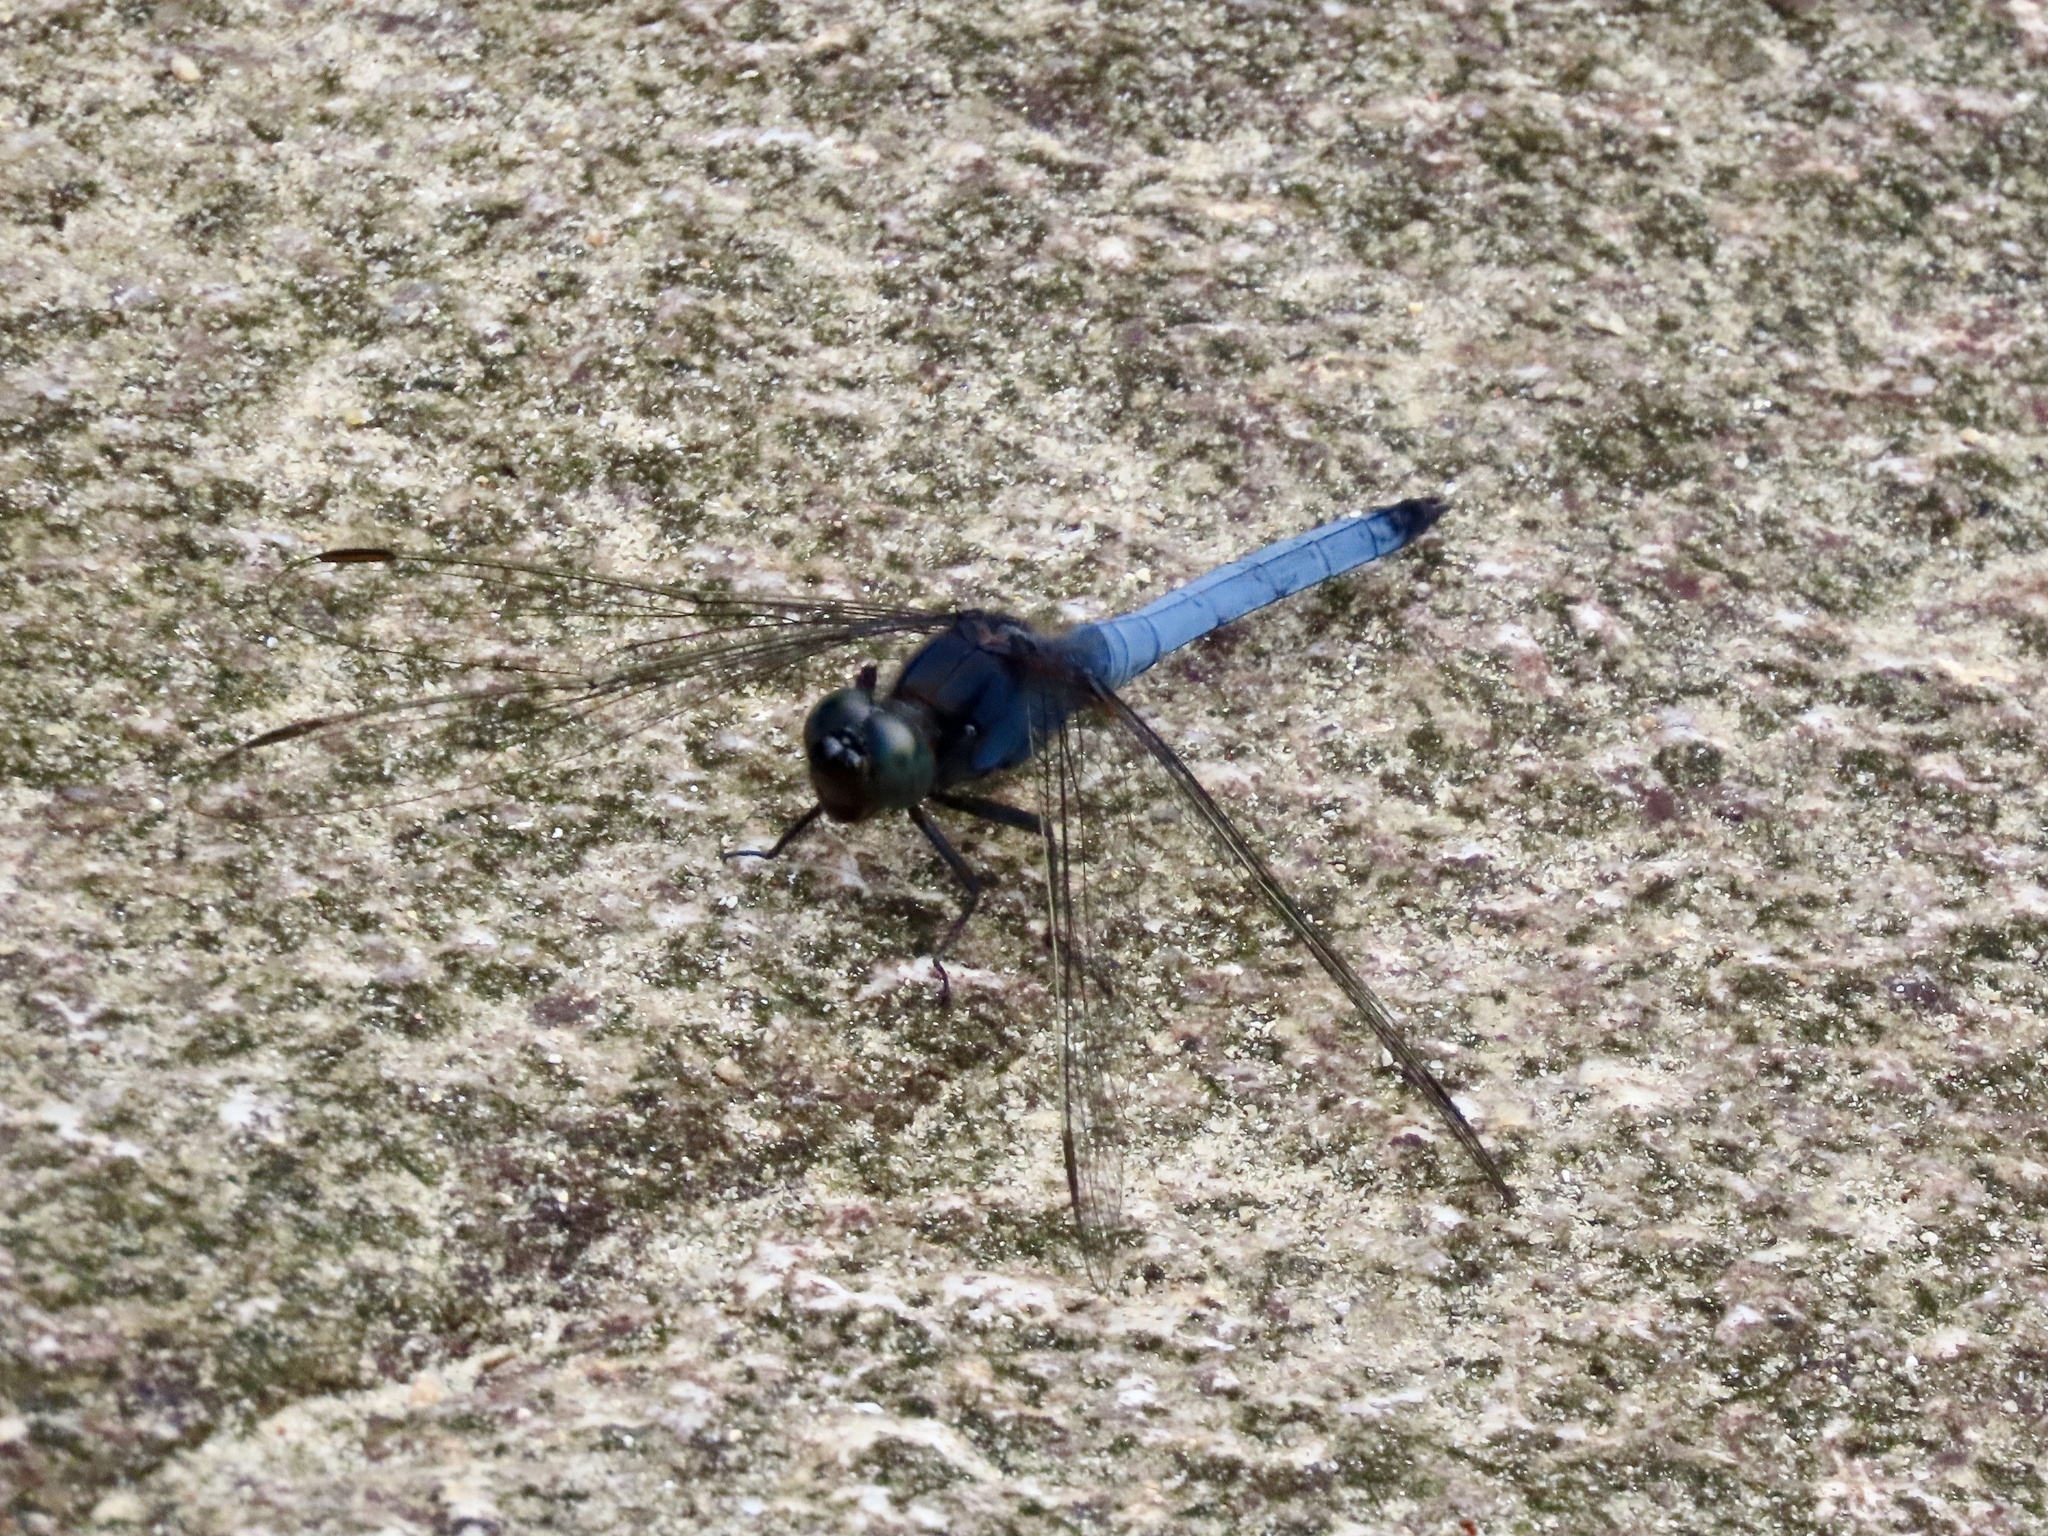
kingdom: Animalia
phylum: Arthropoda
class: Insecta
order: Odonata
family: Libellulidae
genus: Orthetrum
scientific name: Orthetrum glaucum
